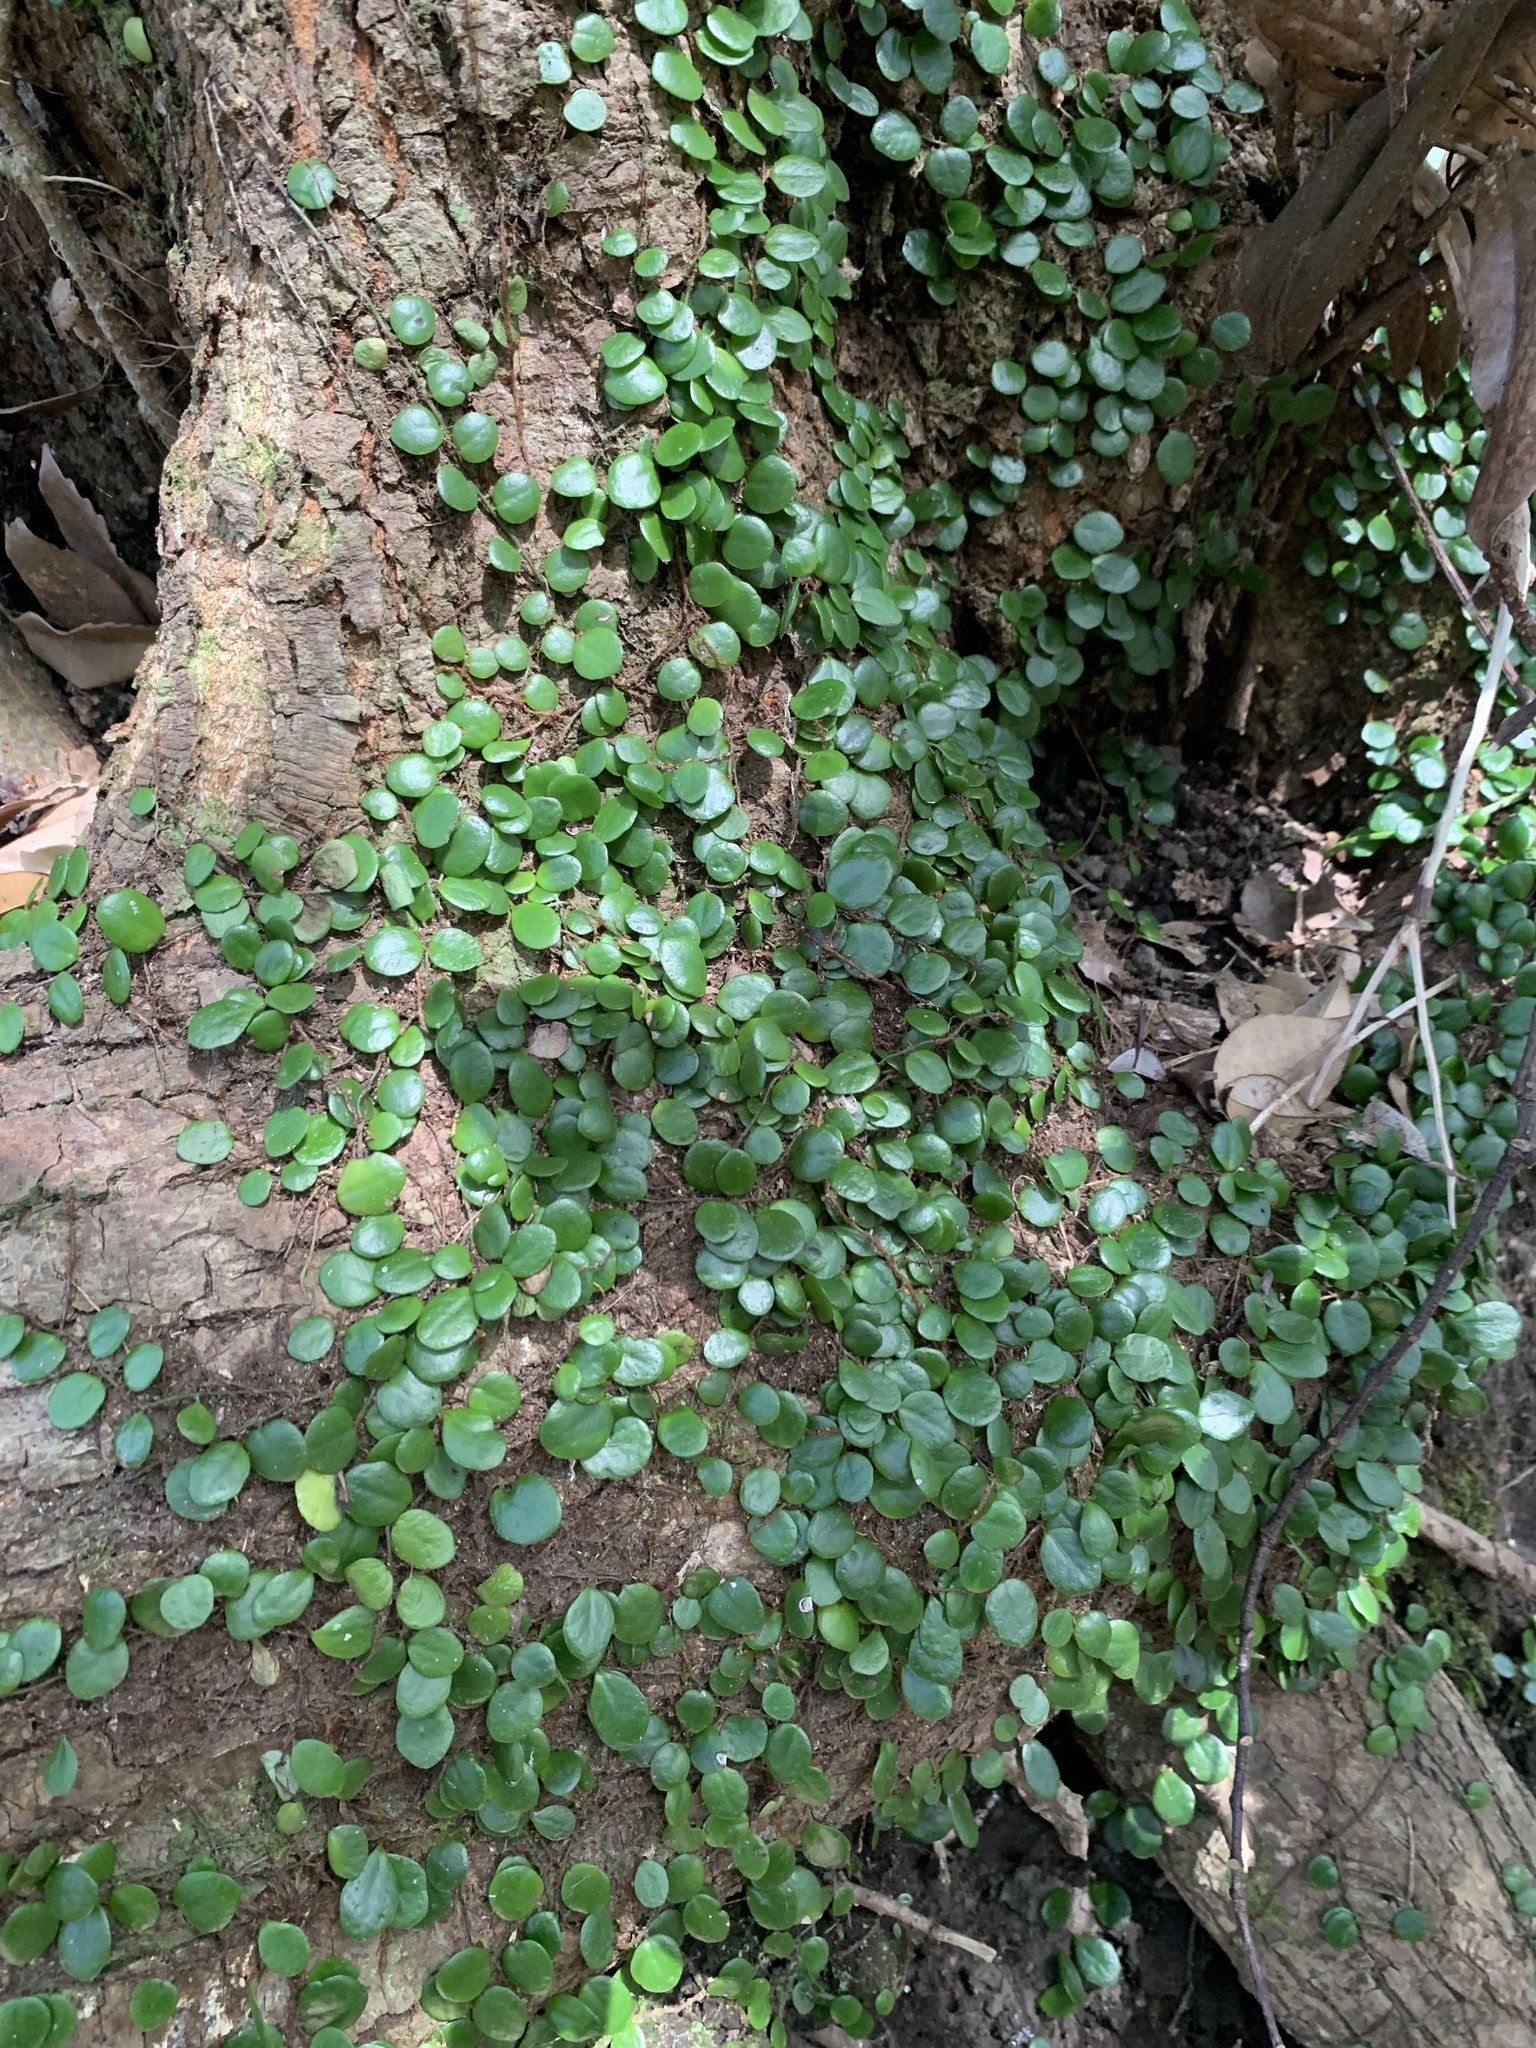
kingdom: Plantae
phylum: Tracheophyta
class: Polypodiopsida
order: Polypodiales
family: Polypodiaceae
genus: Lepisorus
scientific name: Lepisorus microphyllus
